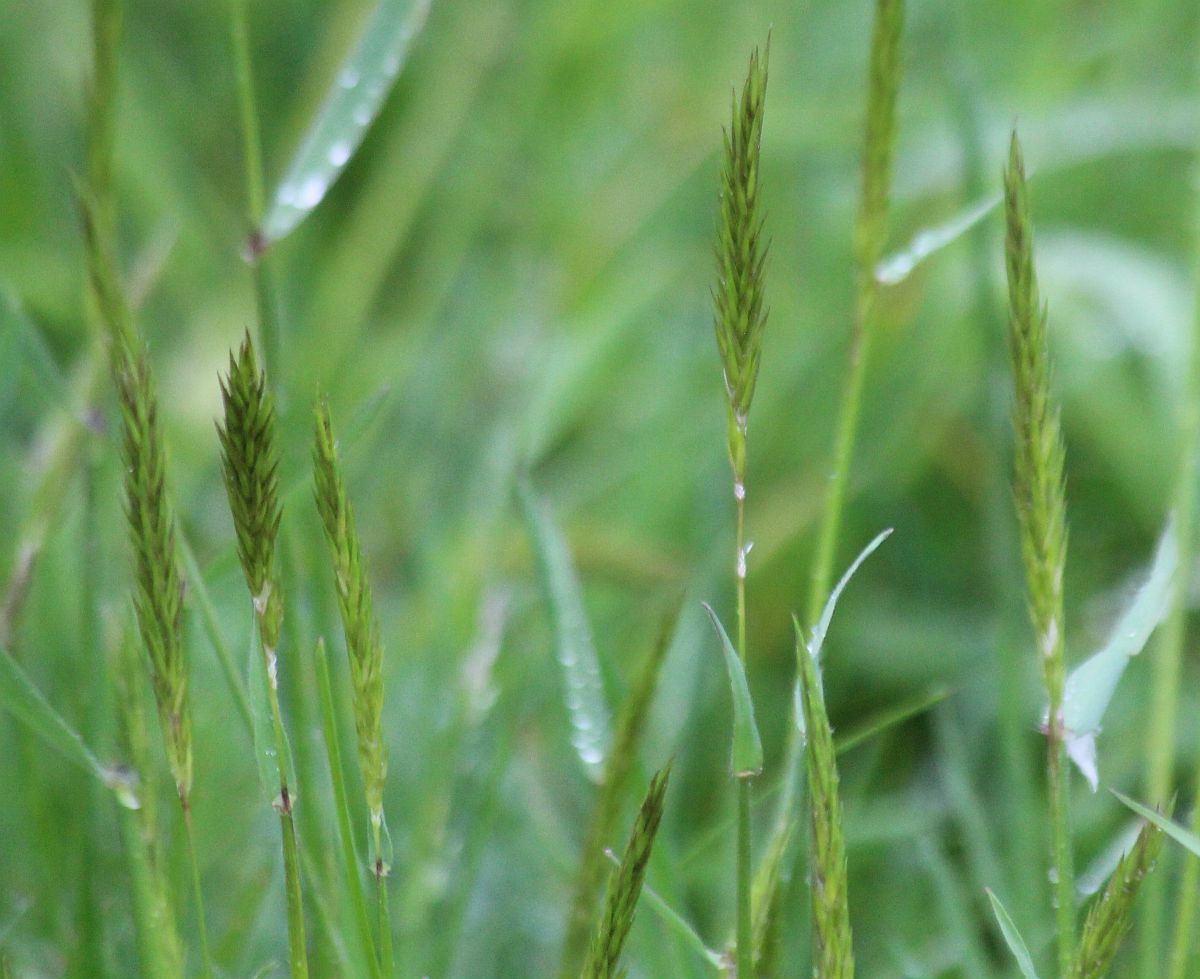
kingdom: Plantae
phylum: Tracheophyta
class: Liliopsida
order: Poales
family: Poaceae
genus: Anthoxanthum
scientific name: Anthoxanthum odoratum
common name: Sweet vernalgrass
